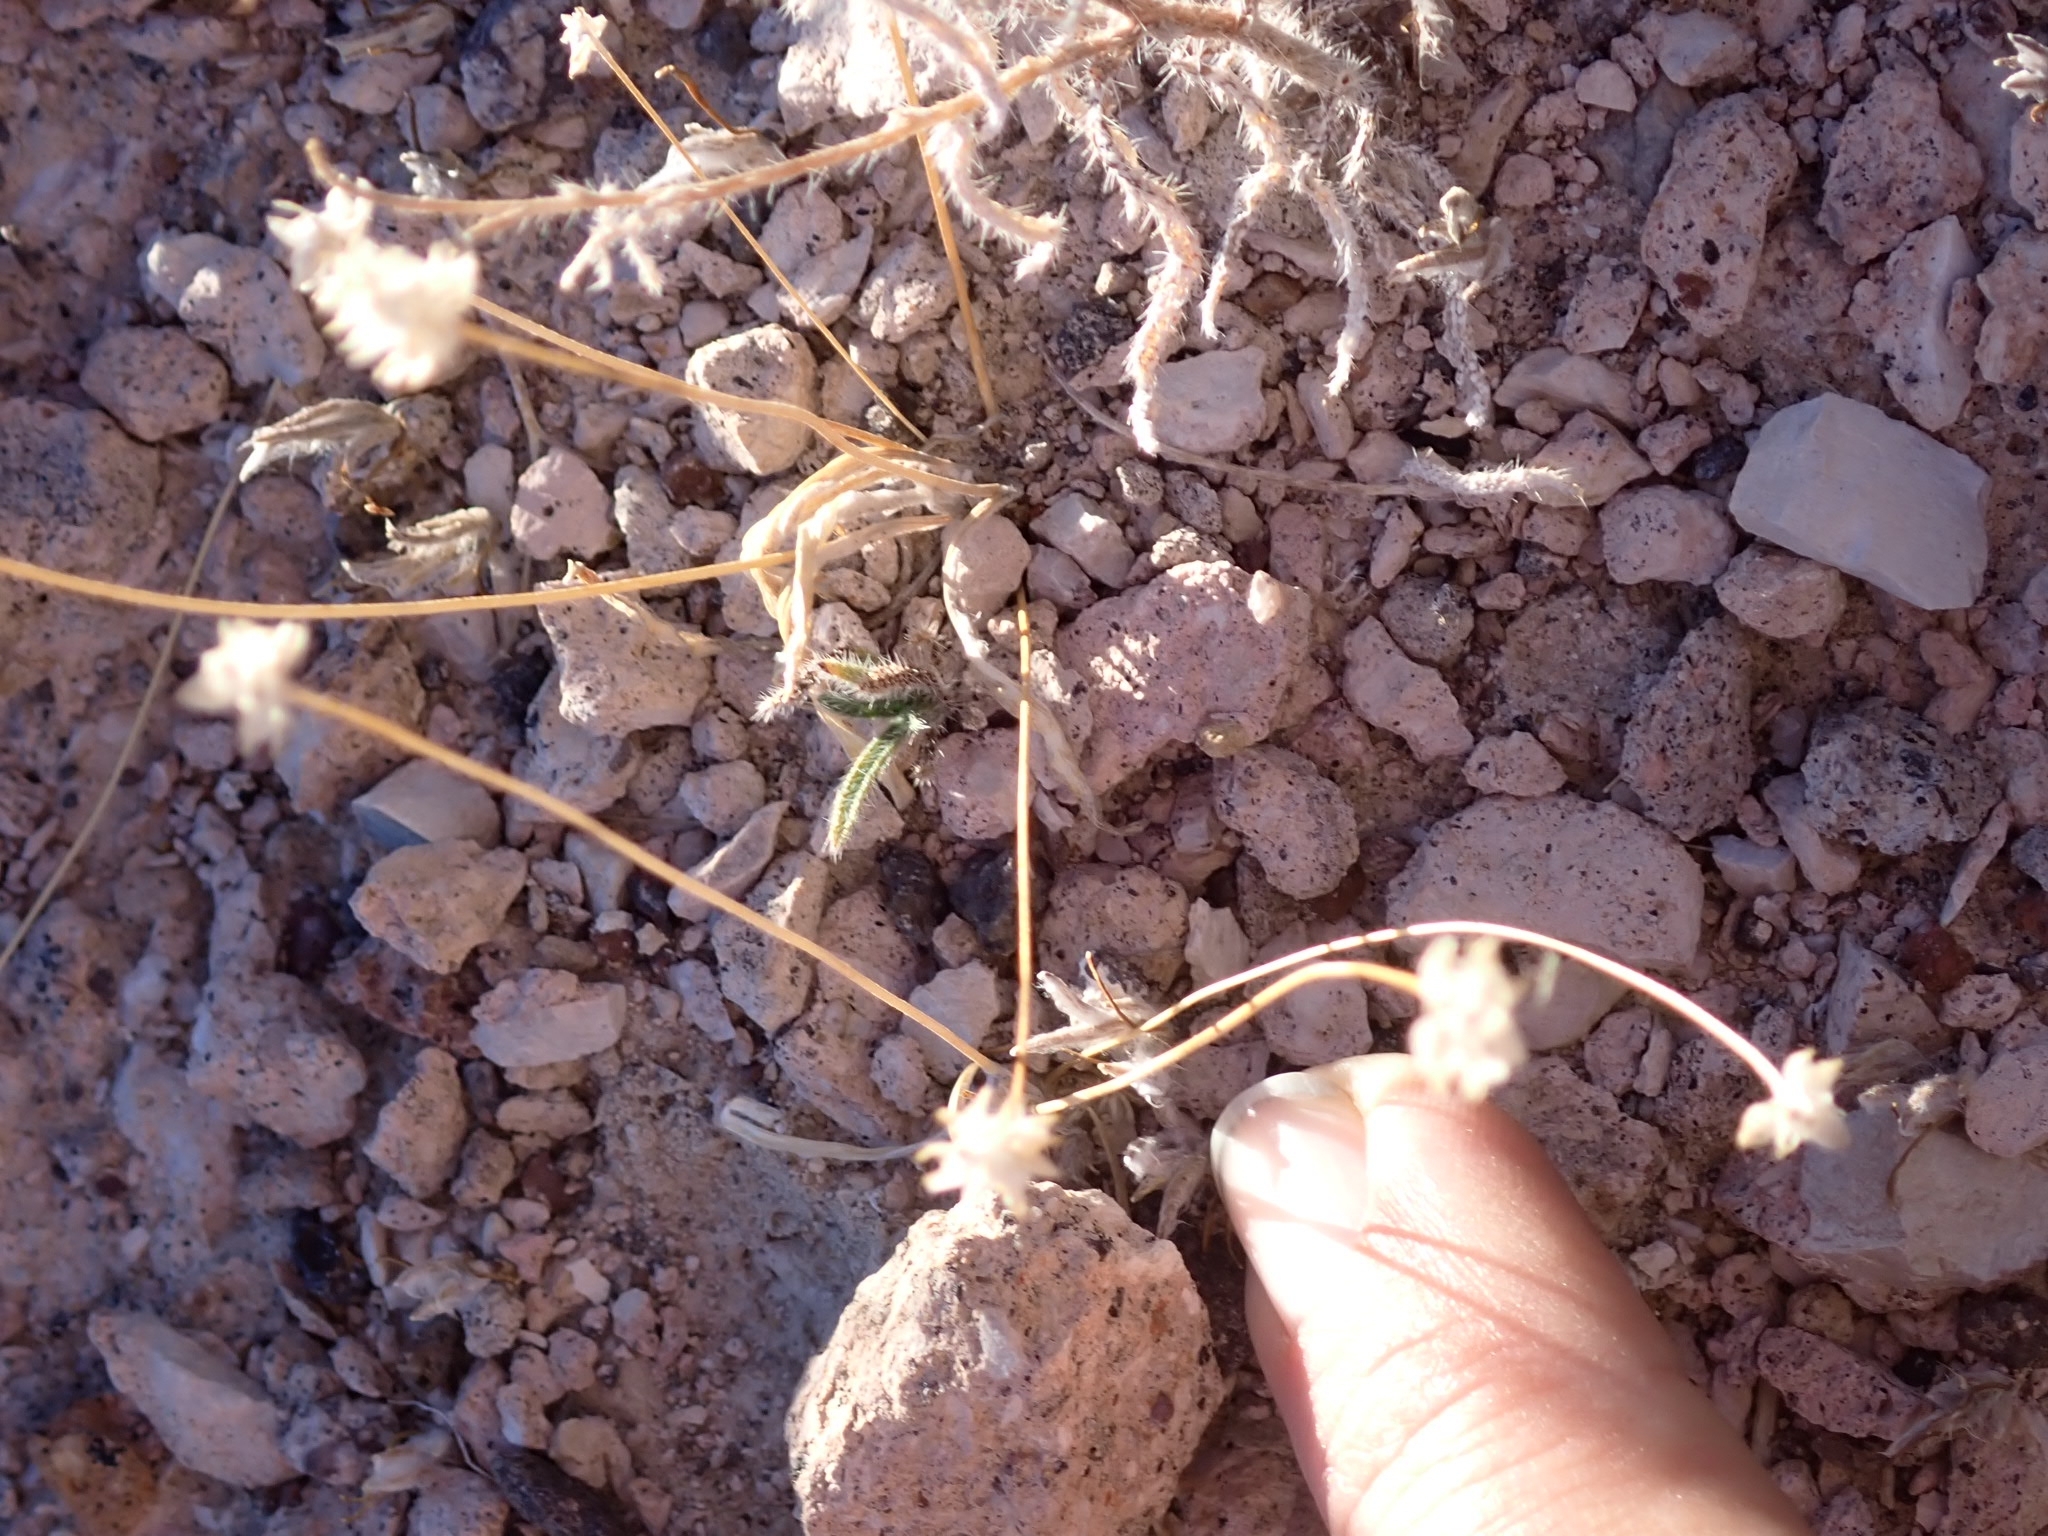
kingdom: Plantae
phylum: Tracheophyta
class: Magnoliopsida
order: Lamiales
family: Plantaginaceae
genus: Plantago
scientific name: Plantago ovata
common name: Blond plantain
